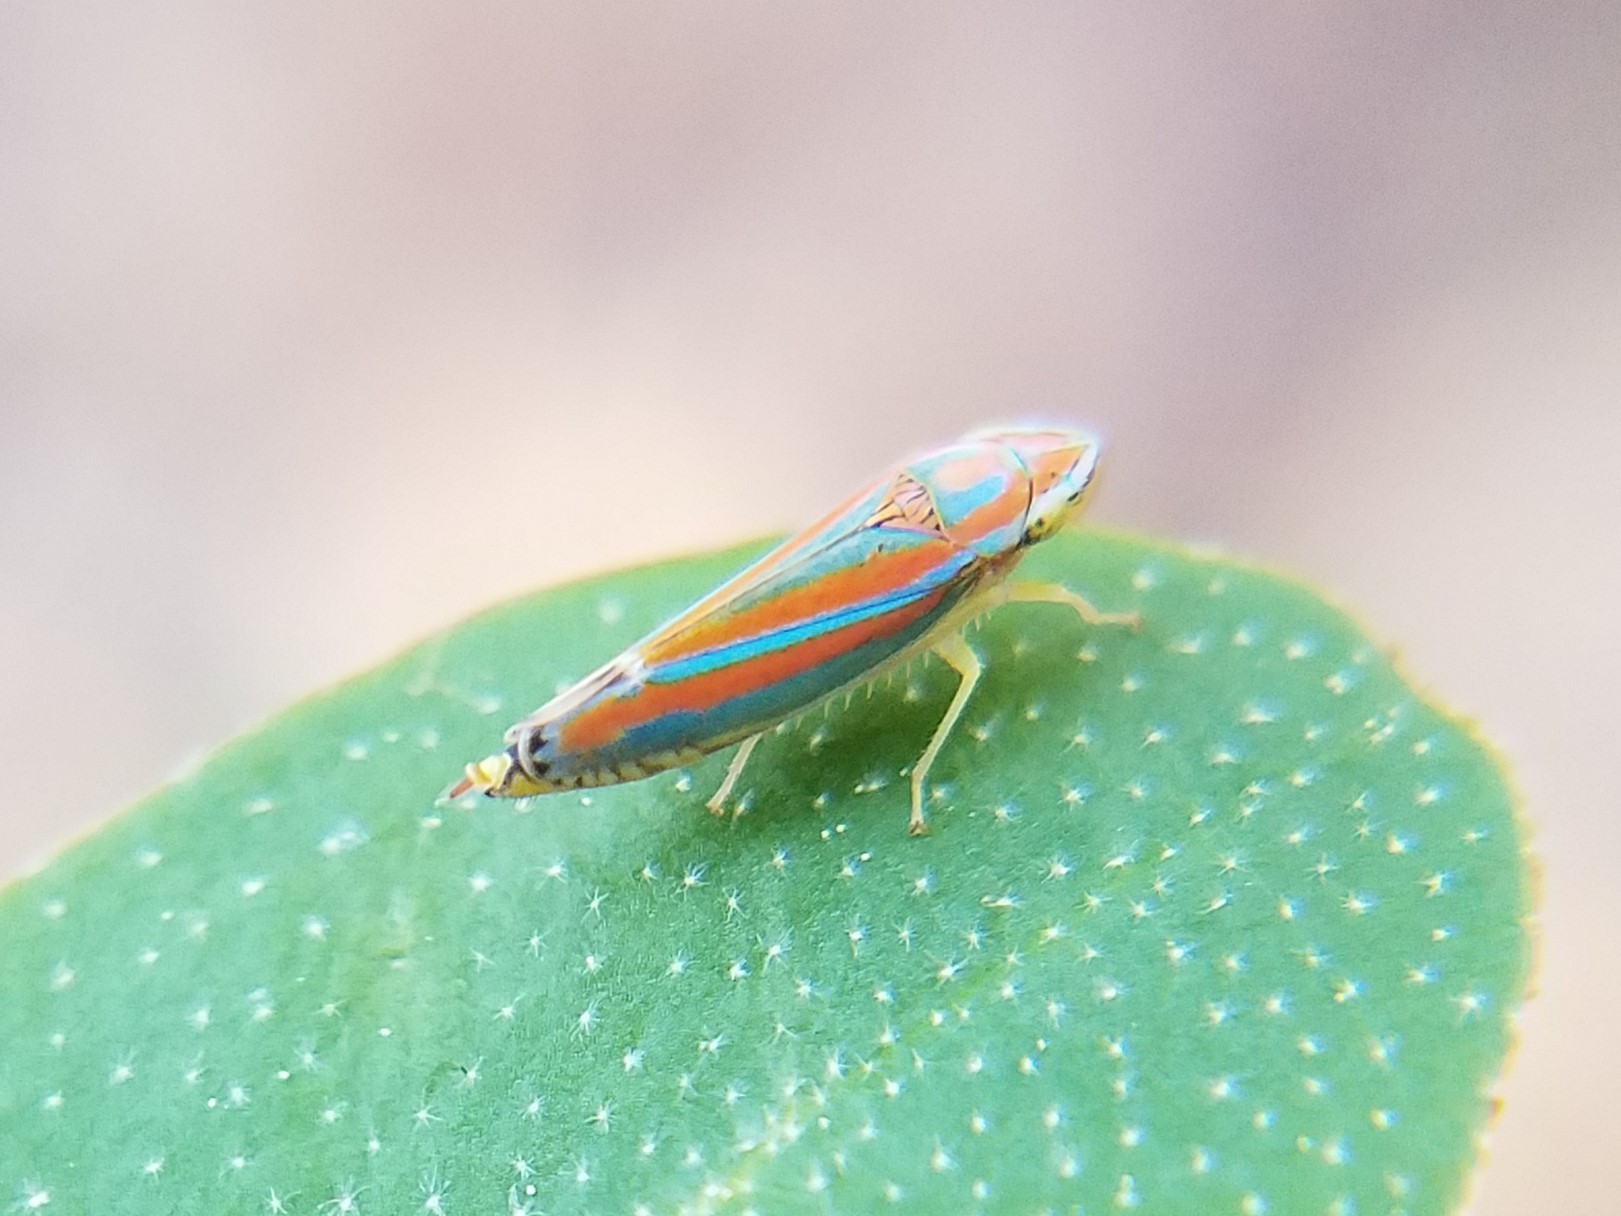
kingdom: Animalia
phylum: Arthropoda
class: Insecta
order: Hemiptera
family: Cicadellidae
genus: Graphocephala
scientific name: Graphocephala versuta
